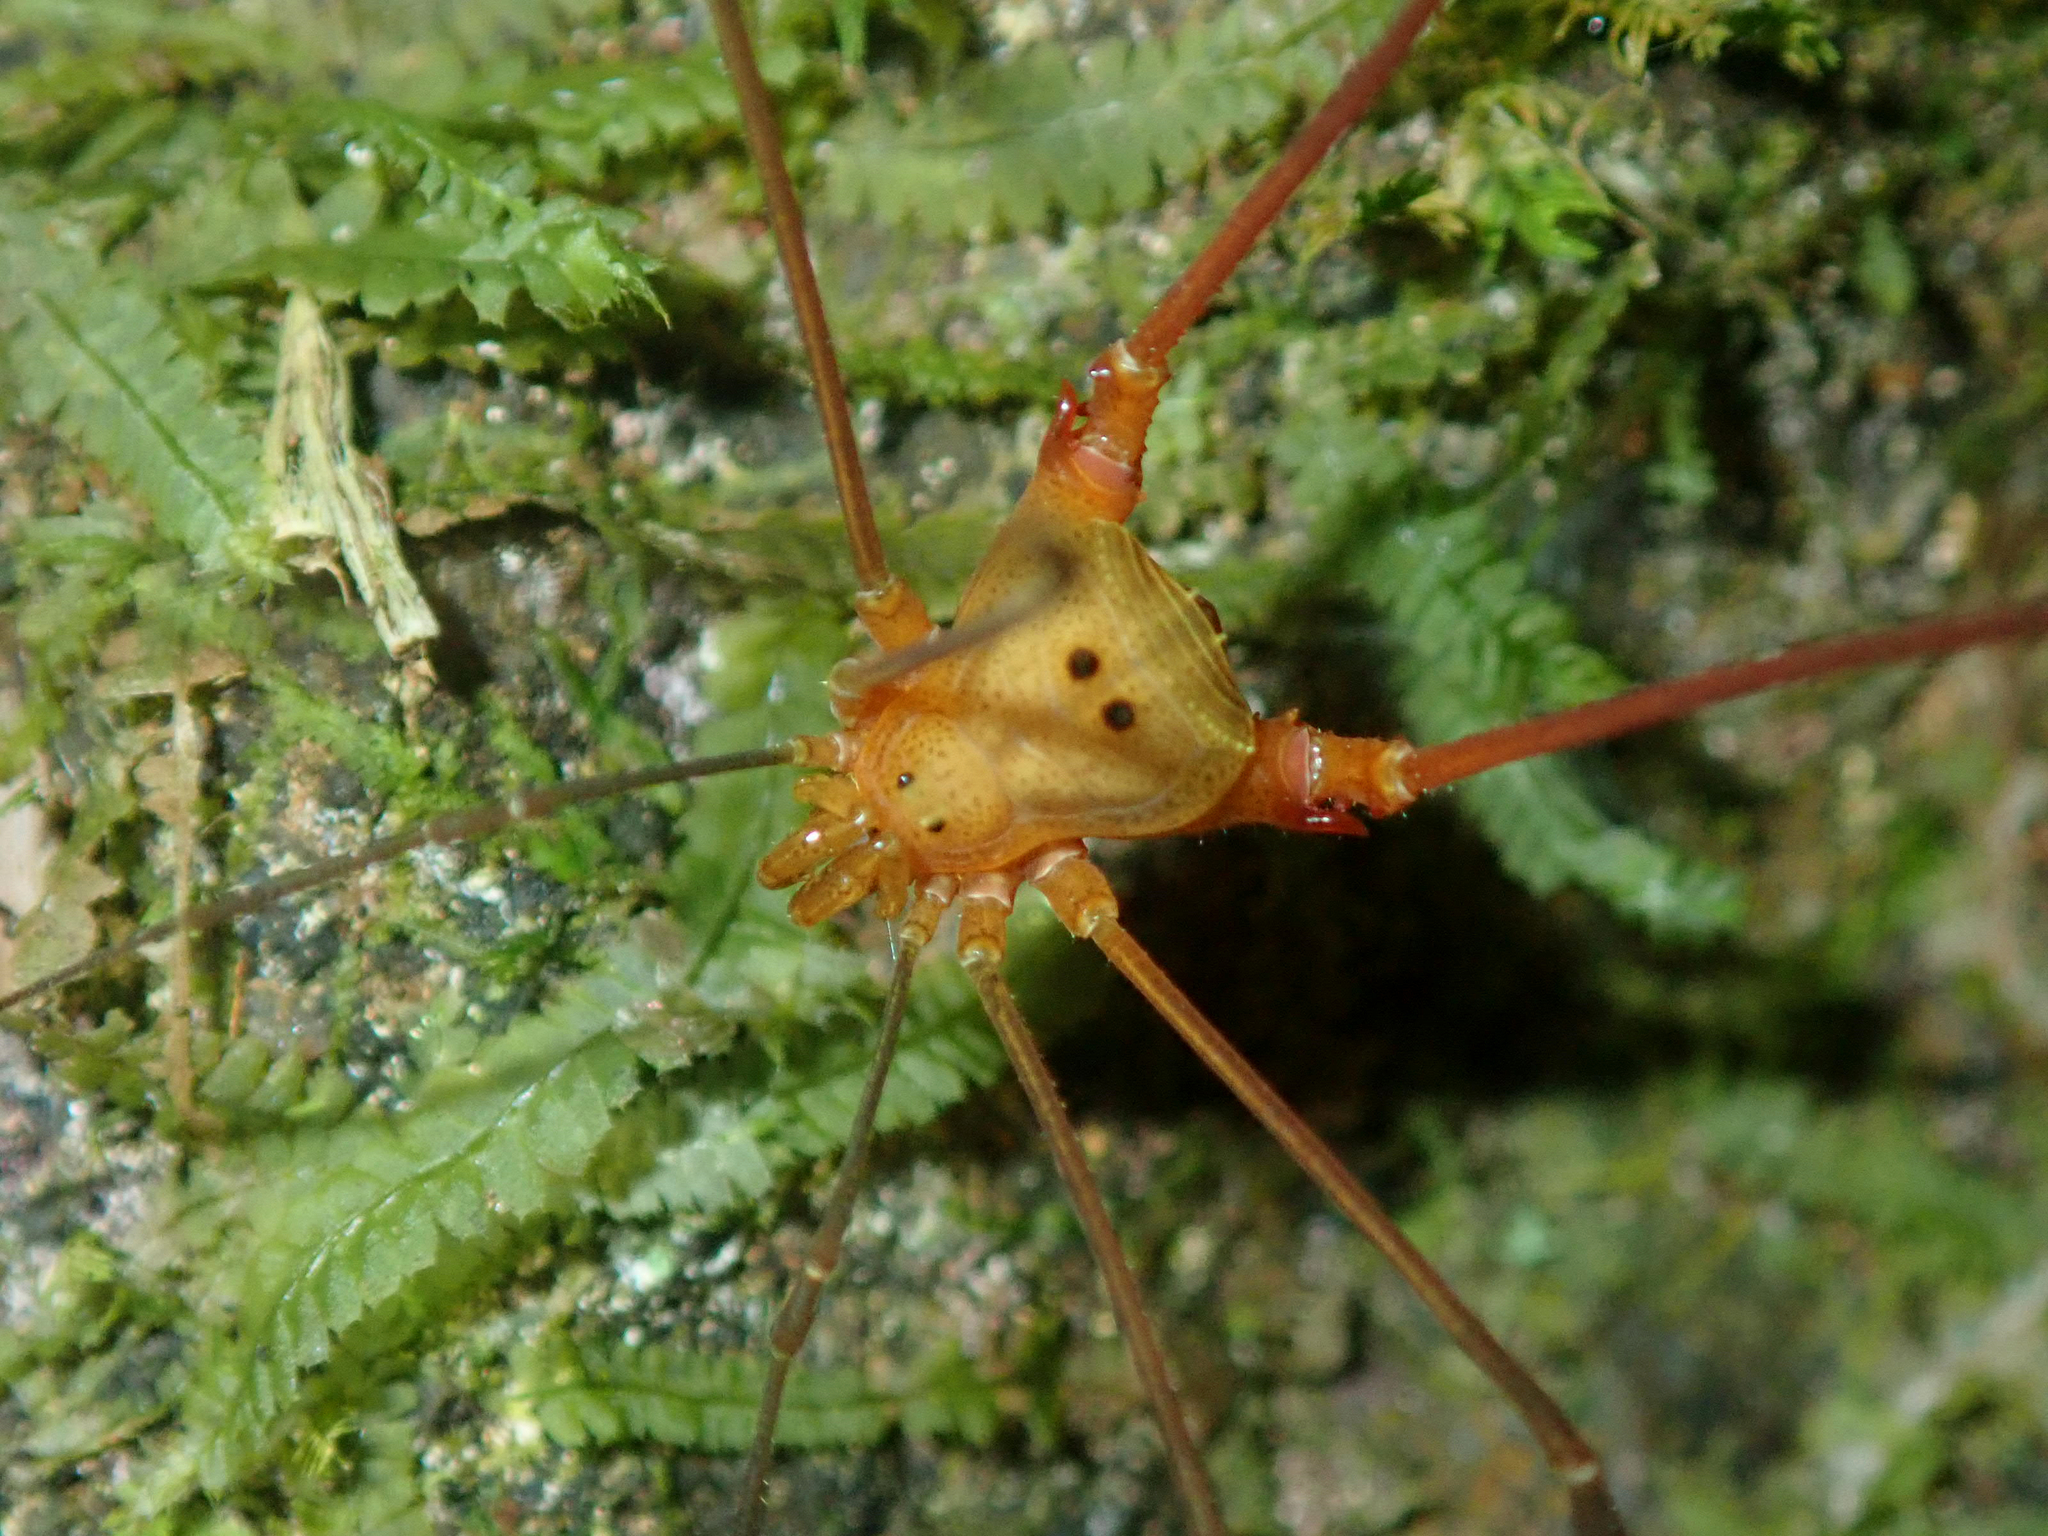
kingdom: Animalia
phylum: Arthropoda
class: Arachnida
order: Opiliones
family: Gonyleptidae
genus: Promitobates
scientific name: Promitobates ale
